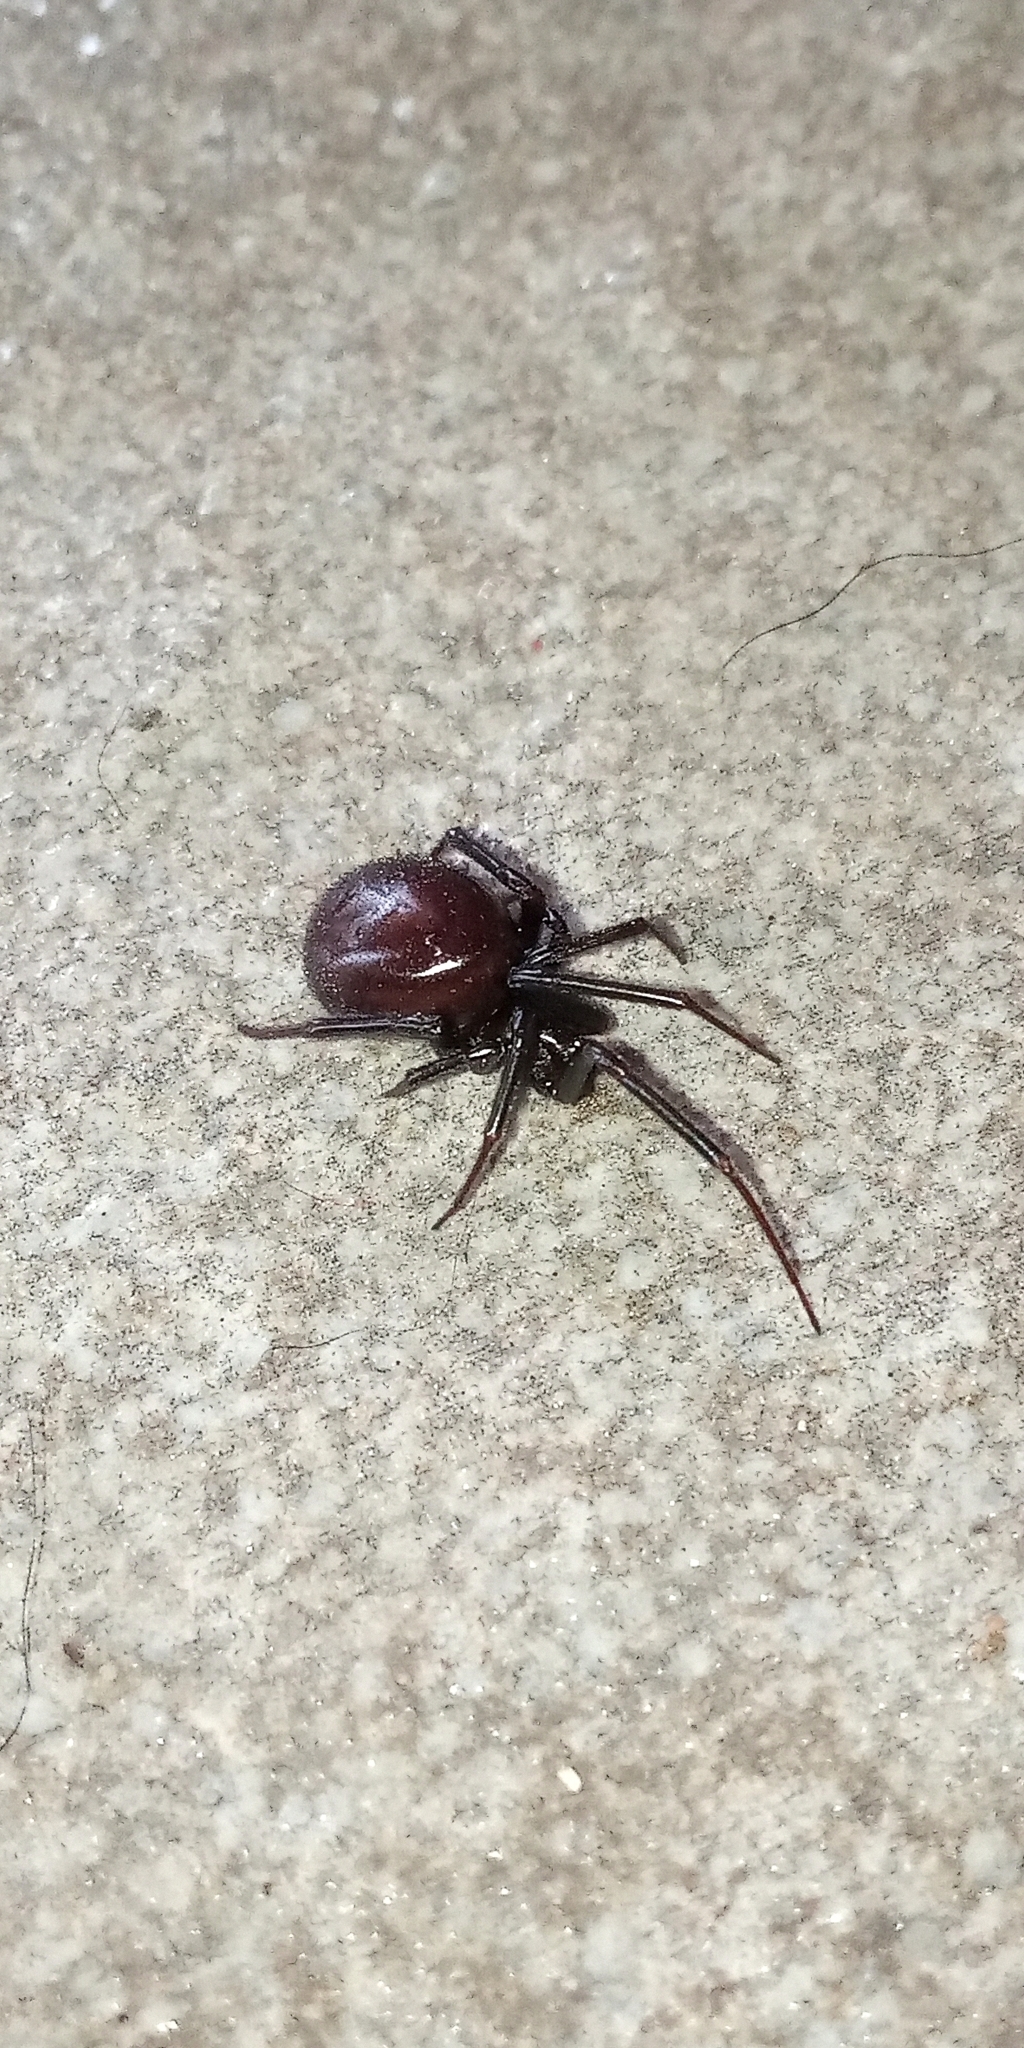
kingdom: Animalia
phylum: Arthropoda
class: Arachnida
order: Araneae
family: Theridiidae
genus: Steatoda
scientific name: Steatoda grossa
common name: False black widow
